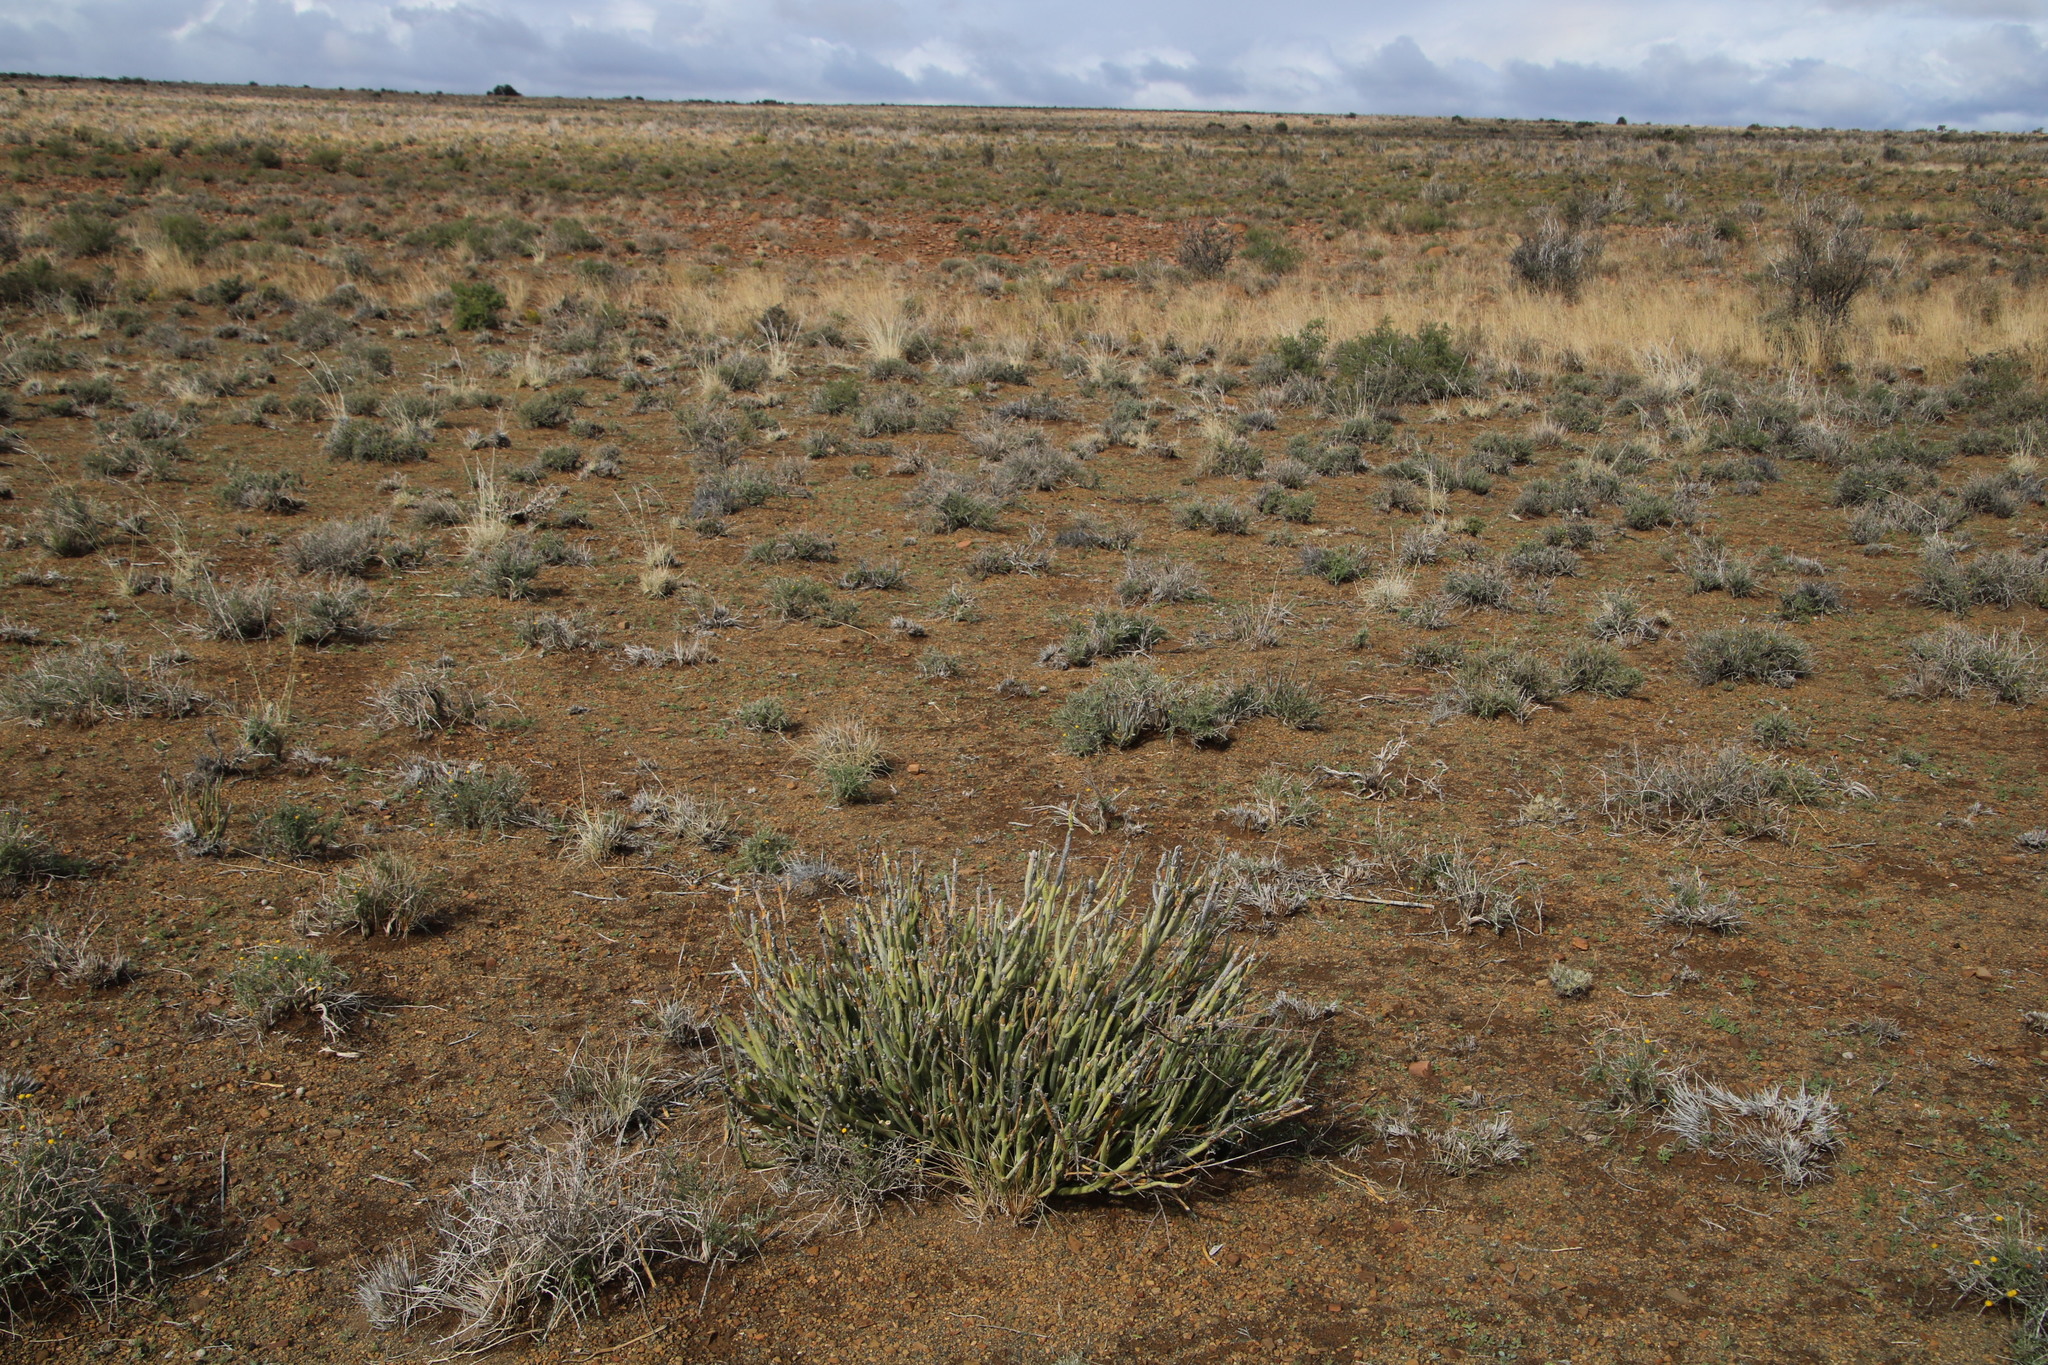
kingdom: Plantae
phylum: Tracheophyta
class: Magnoliopsida
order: Asterales
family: Asteraceae
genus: Curio
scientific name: Curio avasimontanus
